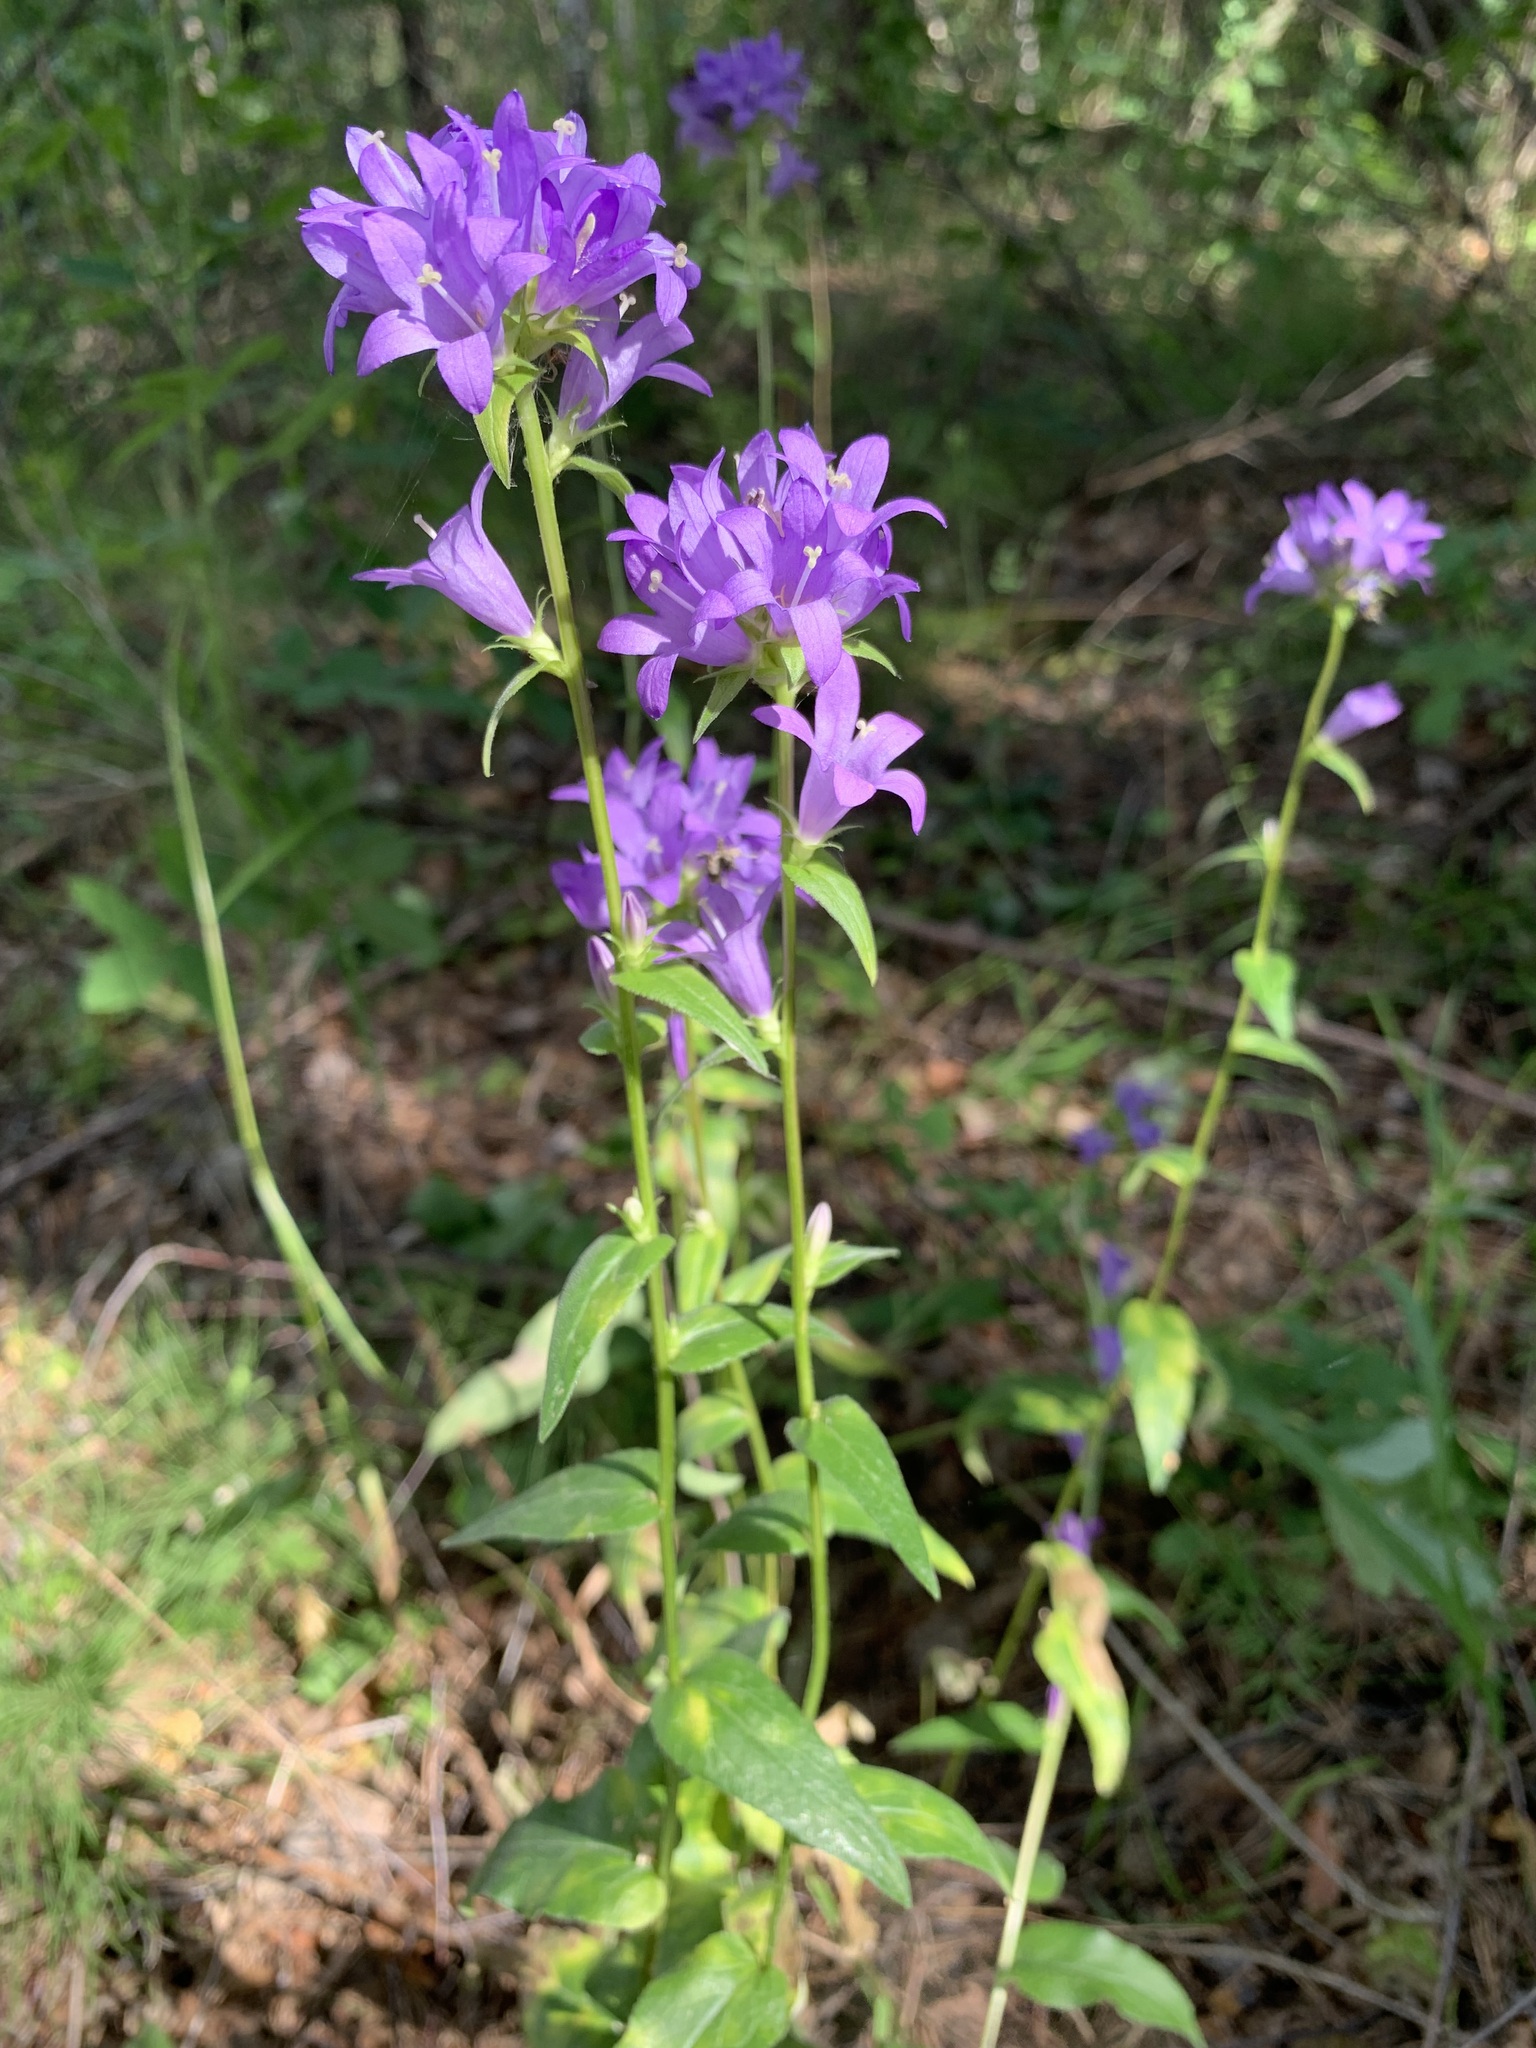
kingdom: Plantae
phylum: Tracheophyta
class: Magnoliopsida
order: Asterales
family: Campanulaceae
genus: Campanula
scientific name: Campanula glomerata
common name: Clustered bellflower
